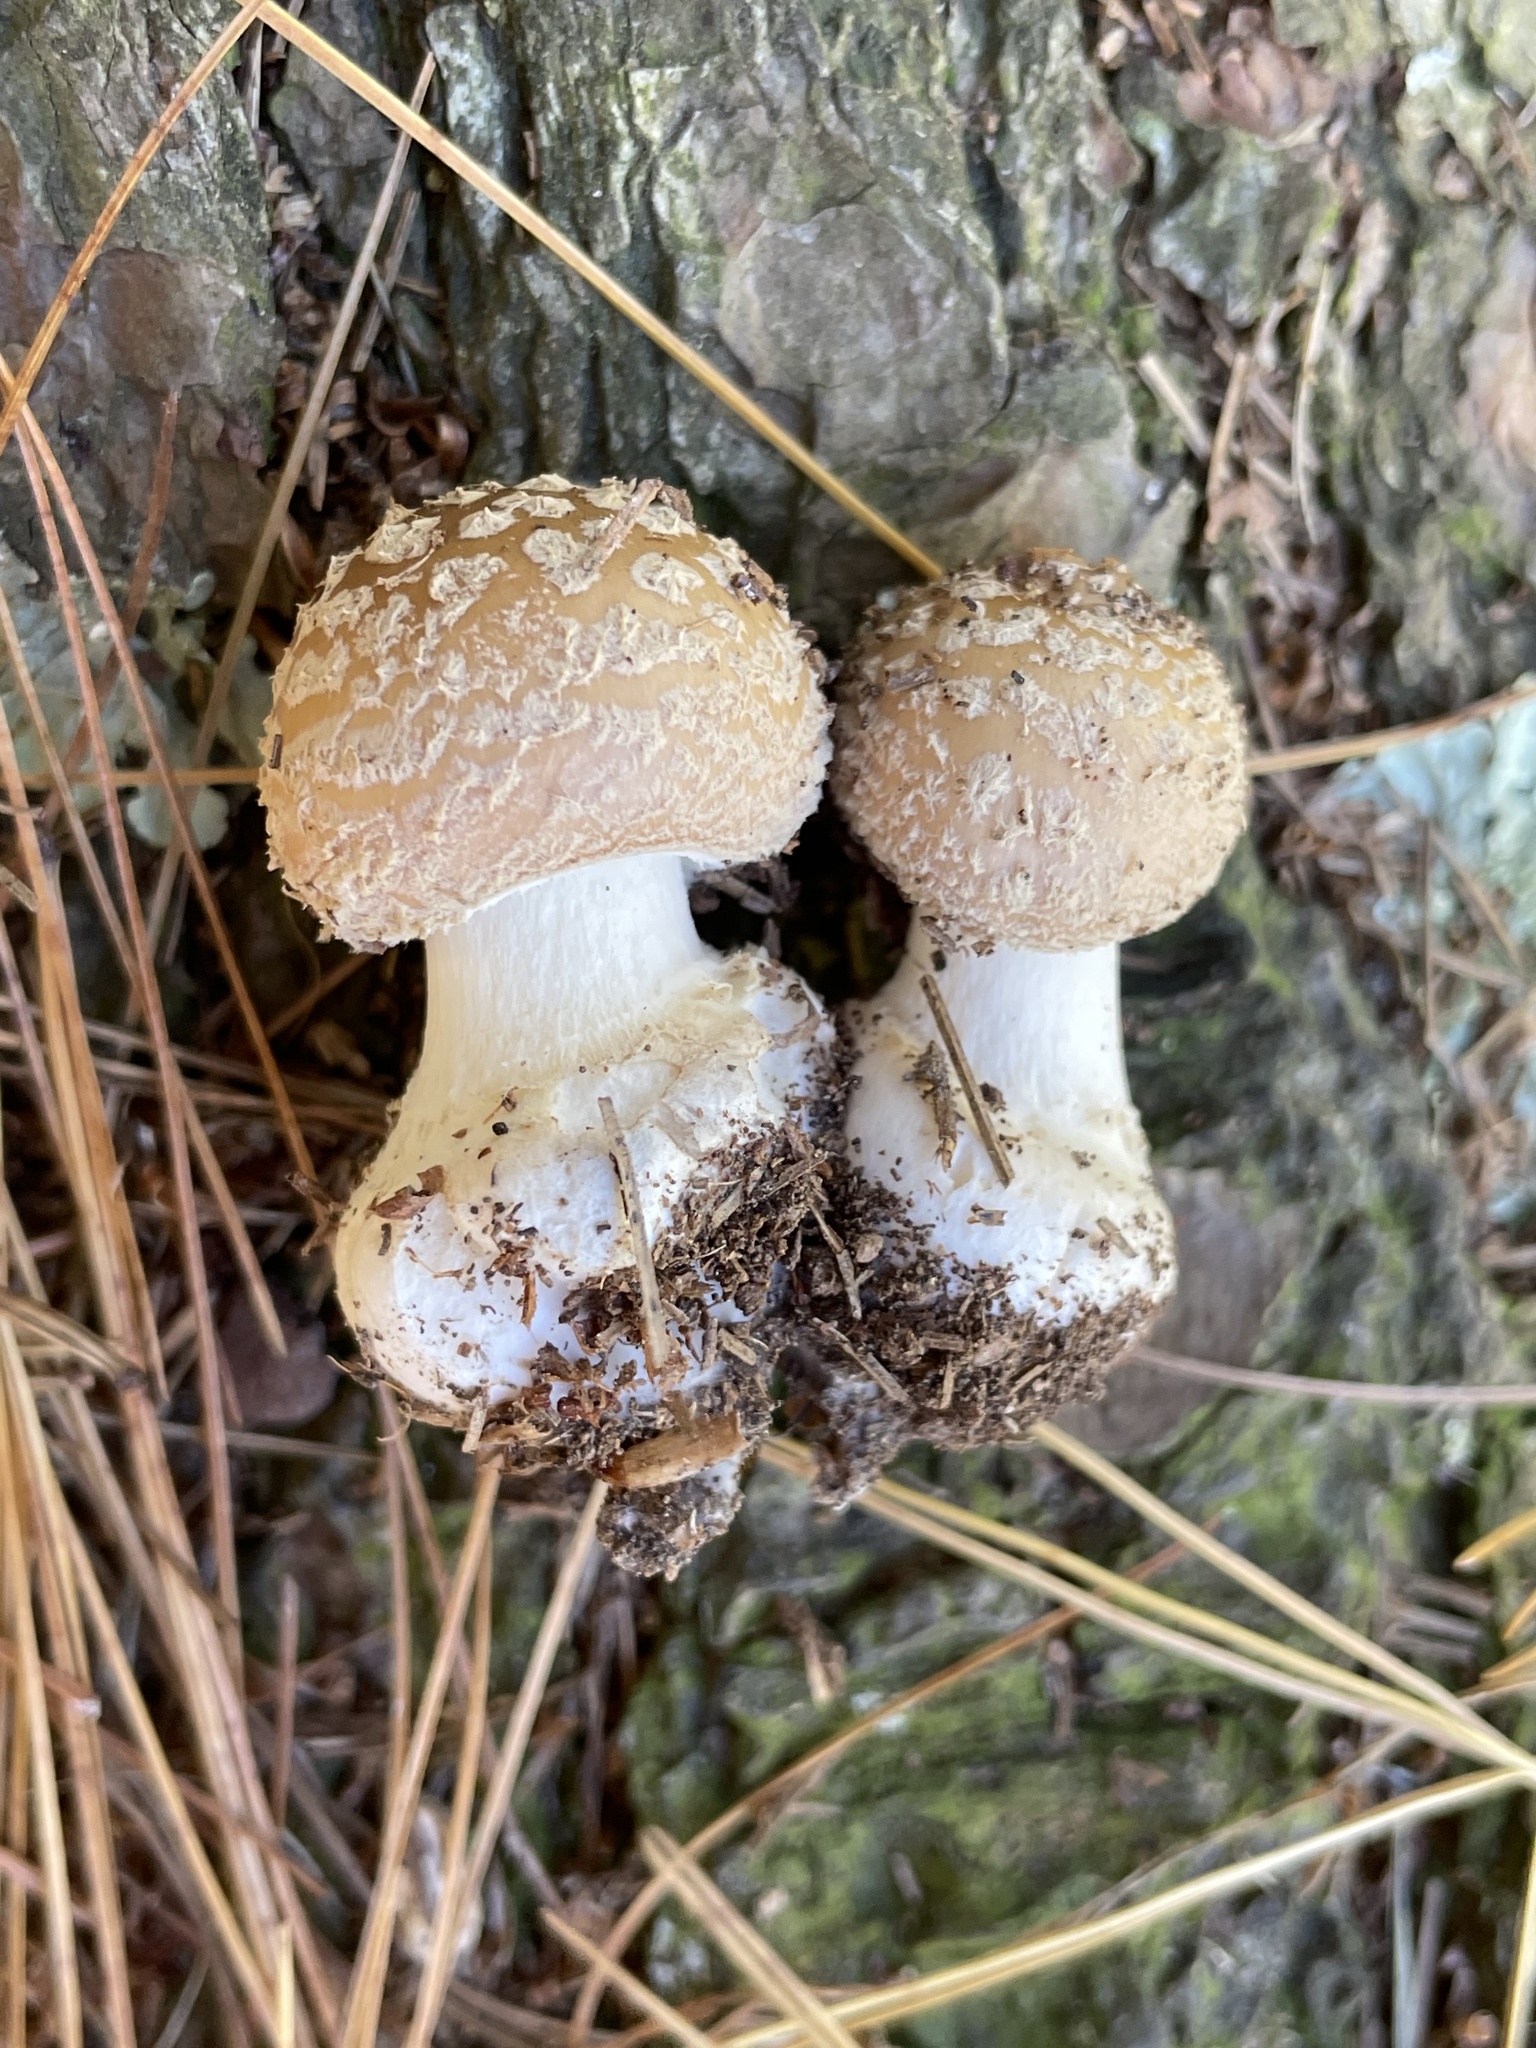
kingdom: Fungi
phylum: Basidiomycota
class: Agaricomycetes
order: Agaricales
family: Amanitaceae
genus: Amanita
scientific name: Amanita crenulata
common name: Poison champagne amanita
